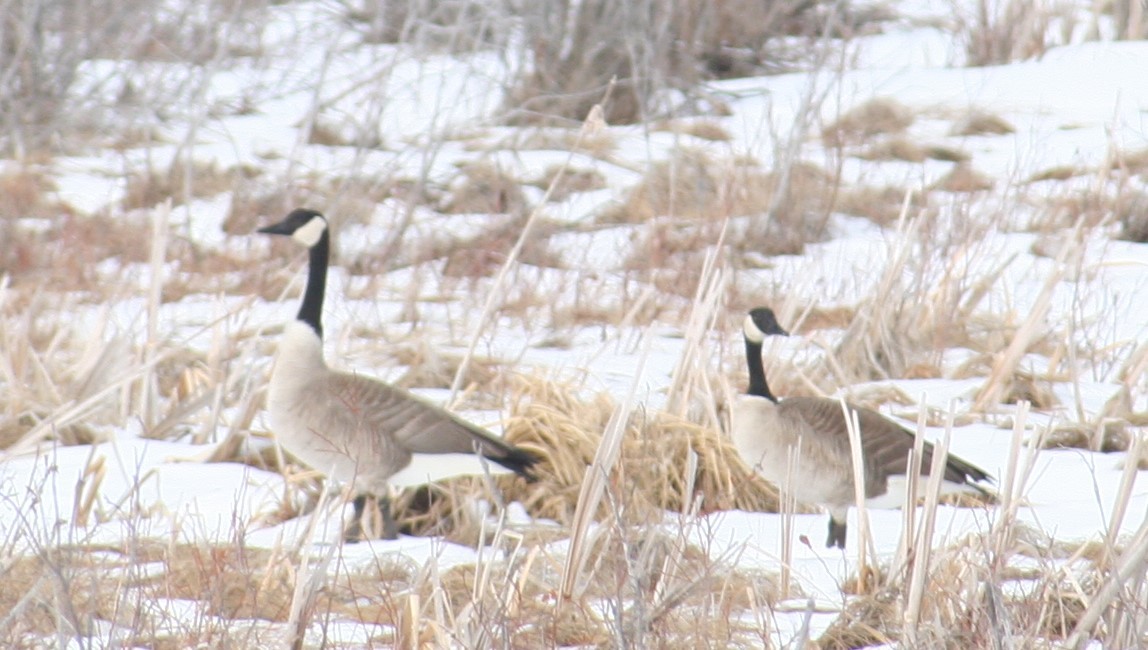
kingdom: Animalia
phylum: Chordata
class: Aves
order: Anseriformes
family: Anatidae
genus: Branta
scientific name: Branta canadensis
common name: Canada goose
